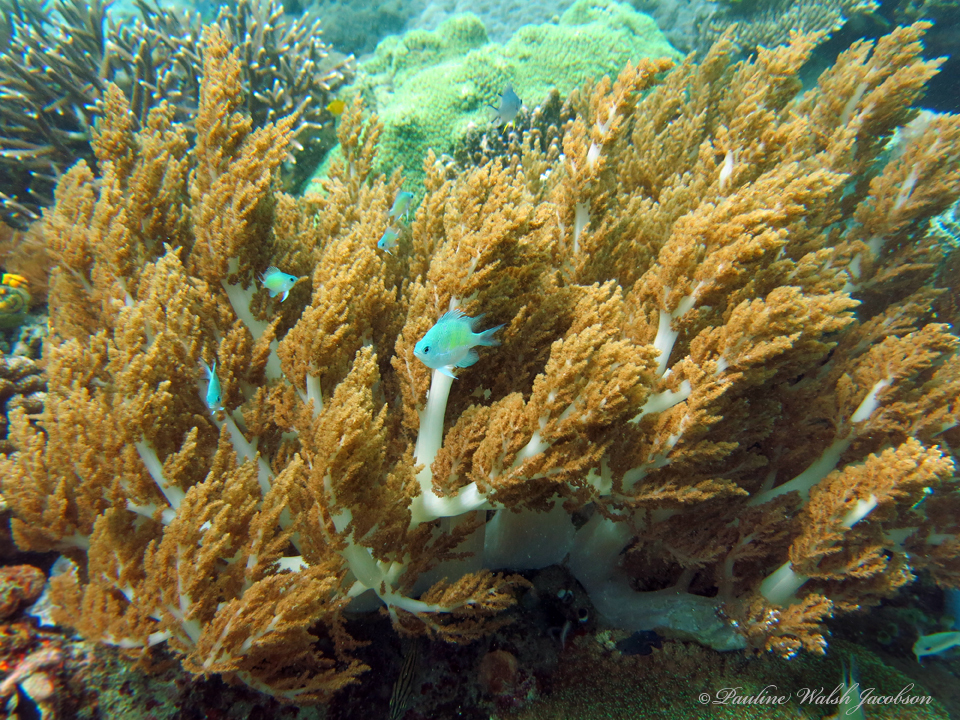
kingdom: Animalia
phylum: Chordata
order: Perciformes
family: Pomacentridae
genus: Chromis
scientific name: Chromis viridis
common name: Blue-green chromis
